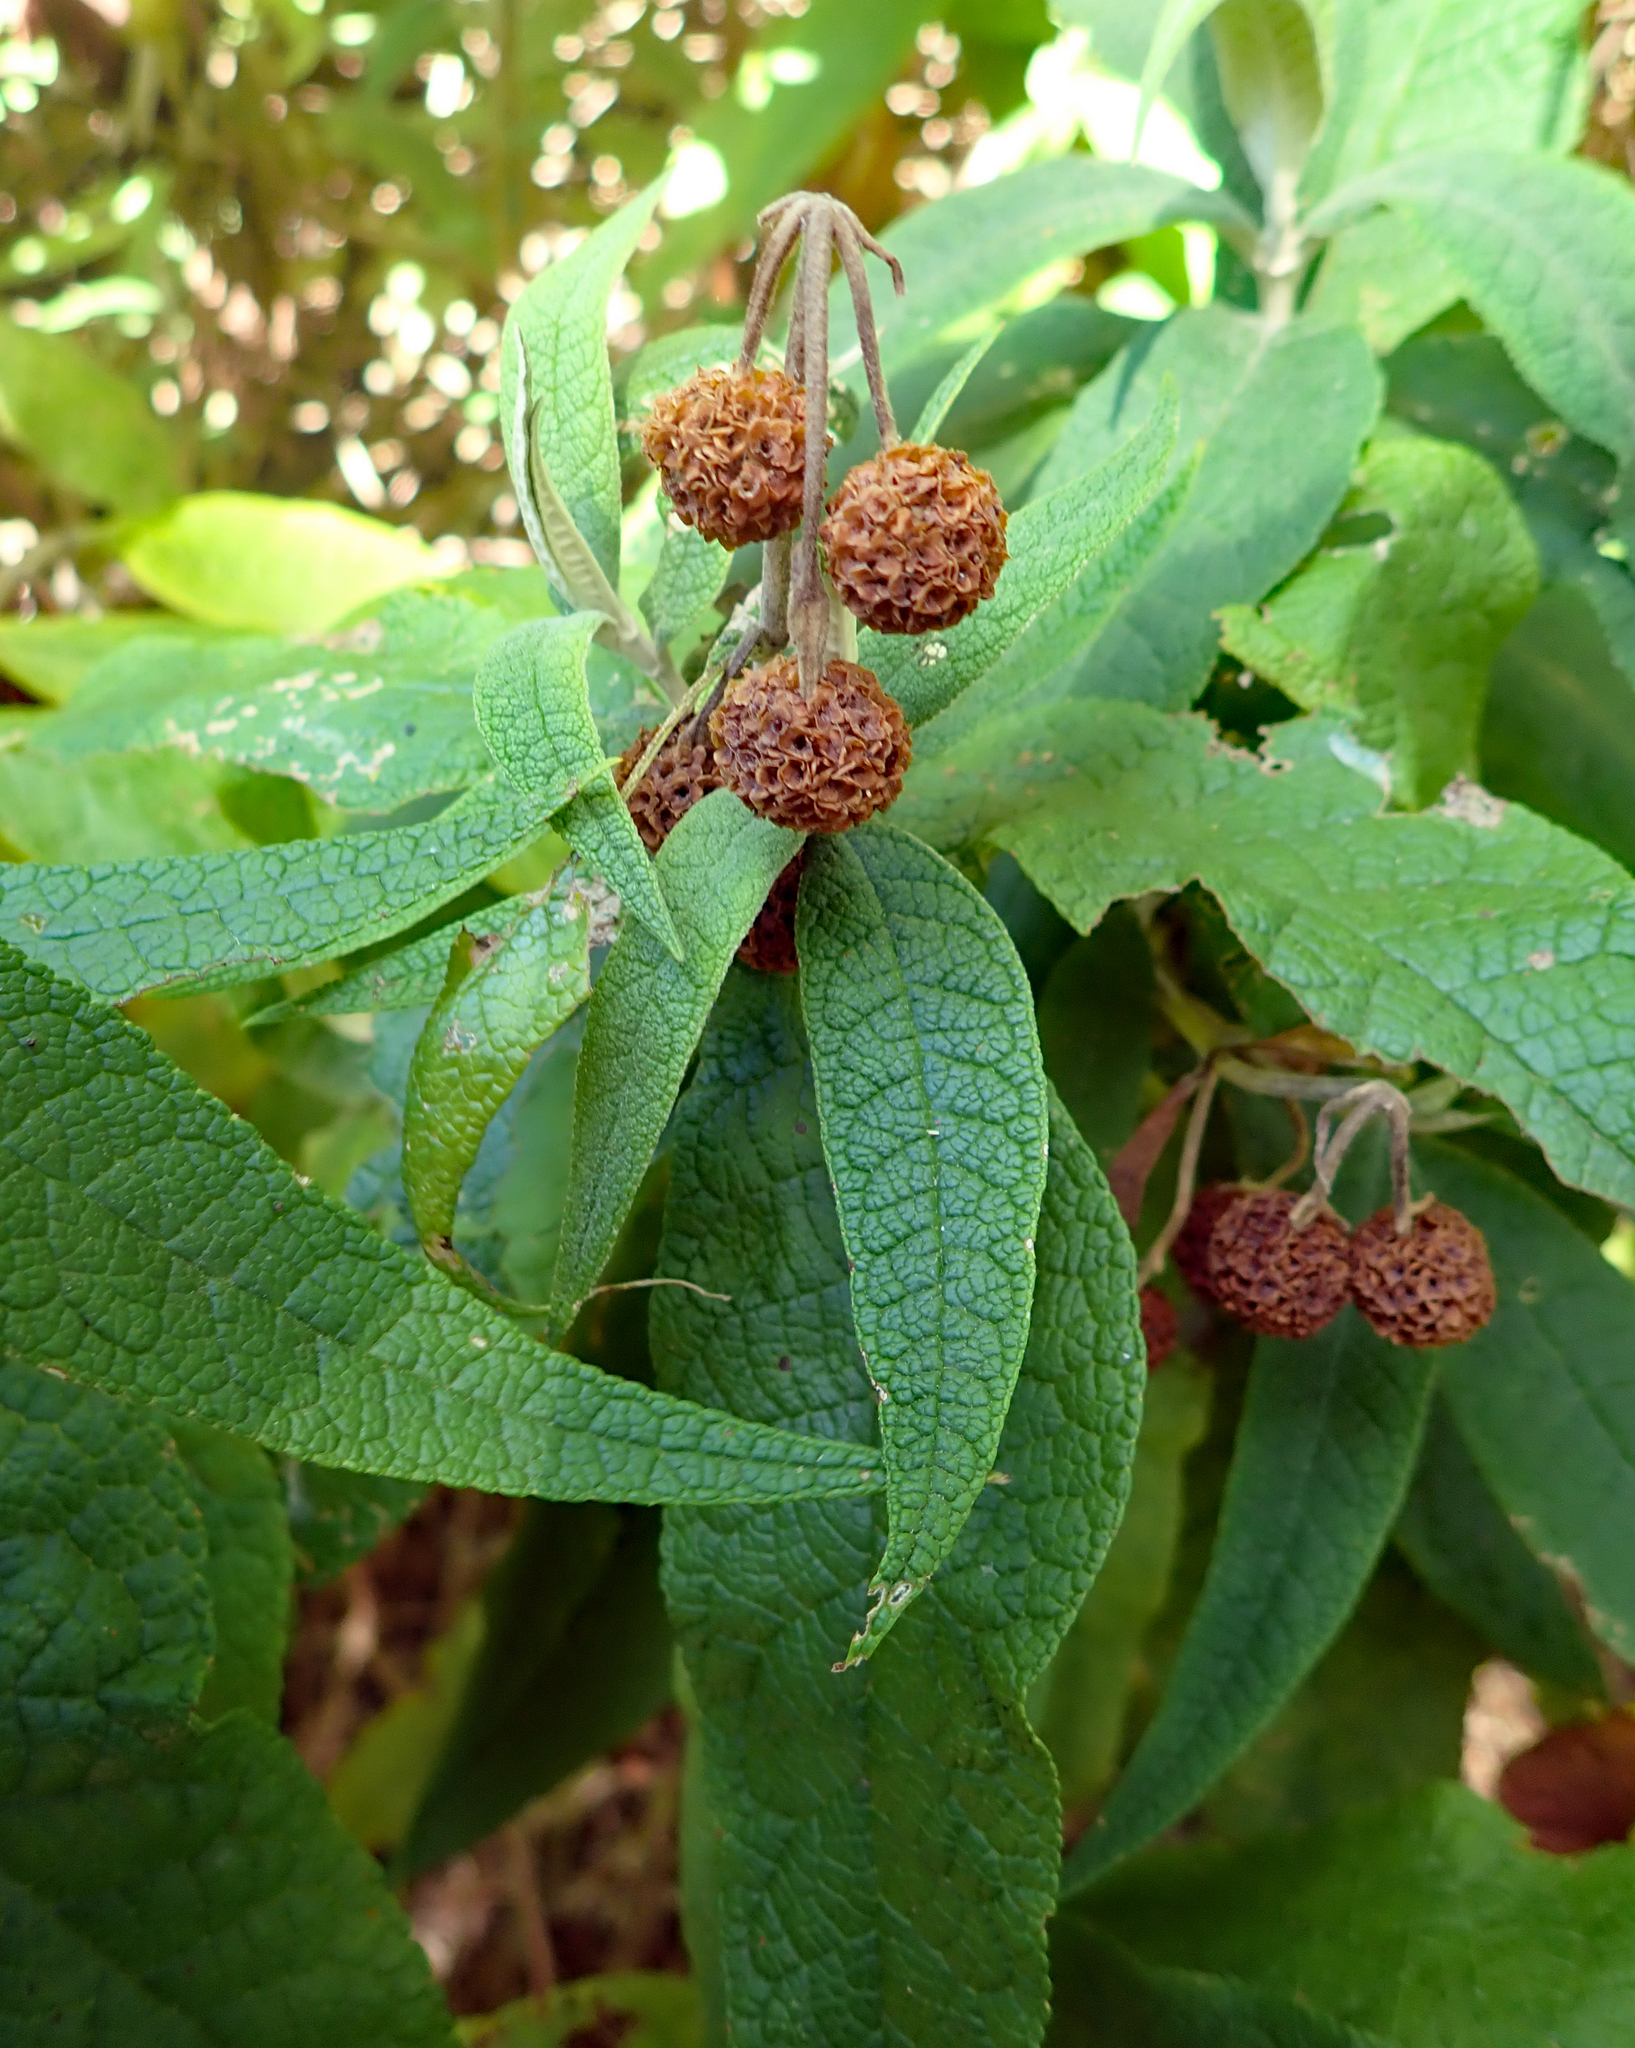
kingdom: Plantae
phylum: Tracheophyta
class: Magnoliopsida
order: Lamiales
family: Scrophulariaceae
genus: Buddleja
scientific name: Buddleja globosa
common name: Orange-ball-tree
